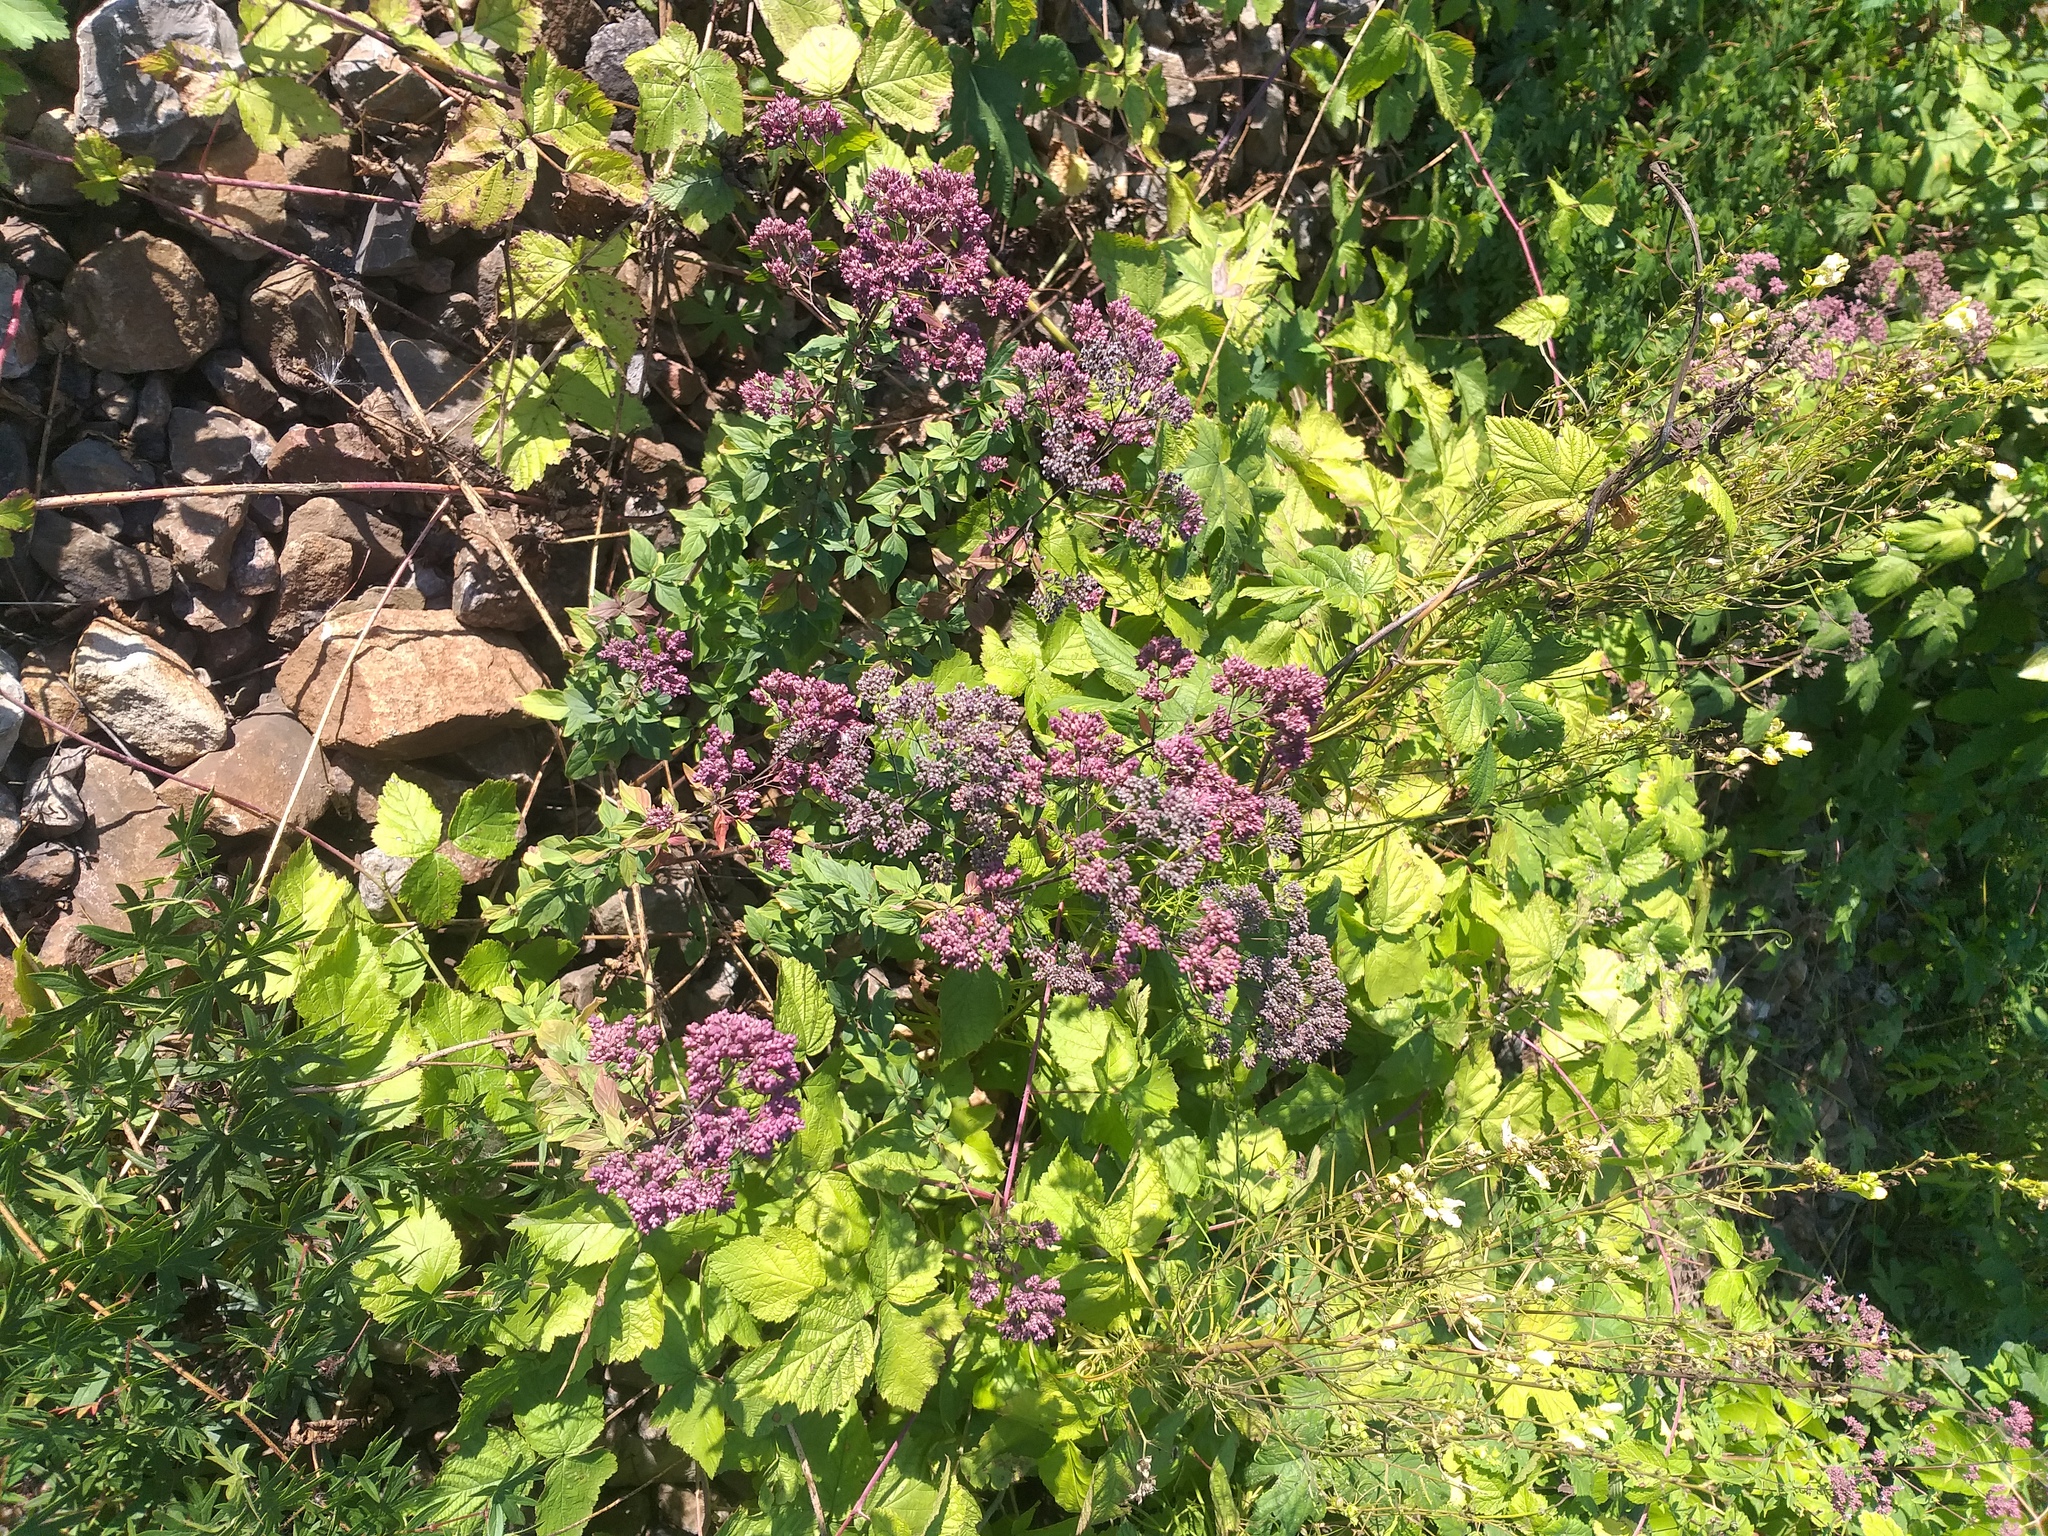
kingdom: Plantae
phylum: Tracheophyta
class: Magnoliopsida
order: Lamiales
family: Lamiaceae
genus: Origanum
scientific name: Origanum vulgare
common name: Wild marjoram
